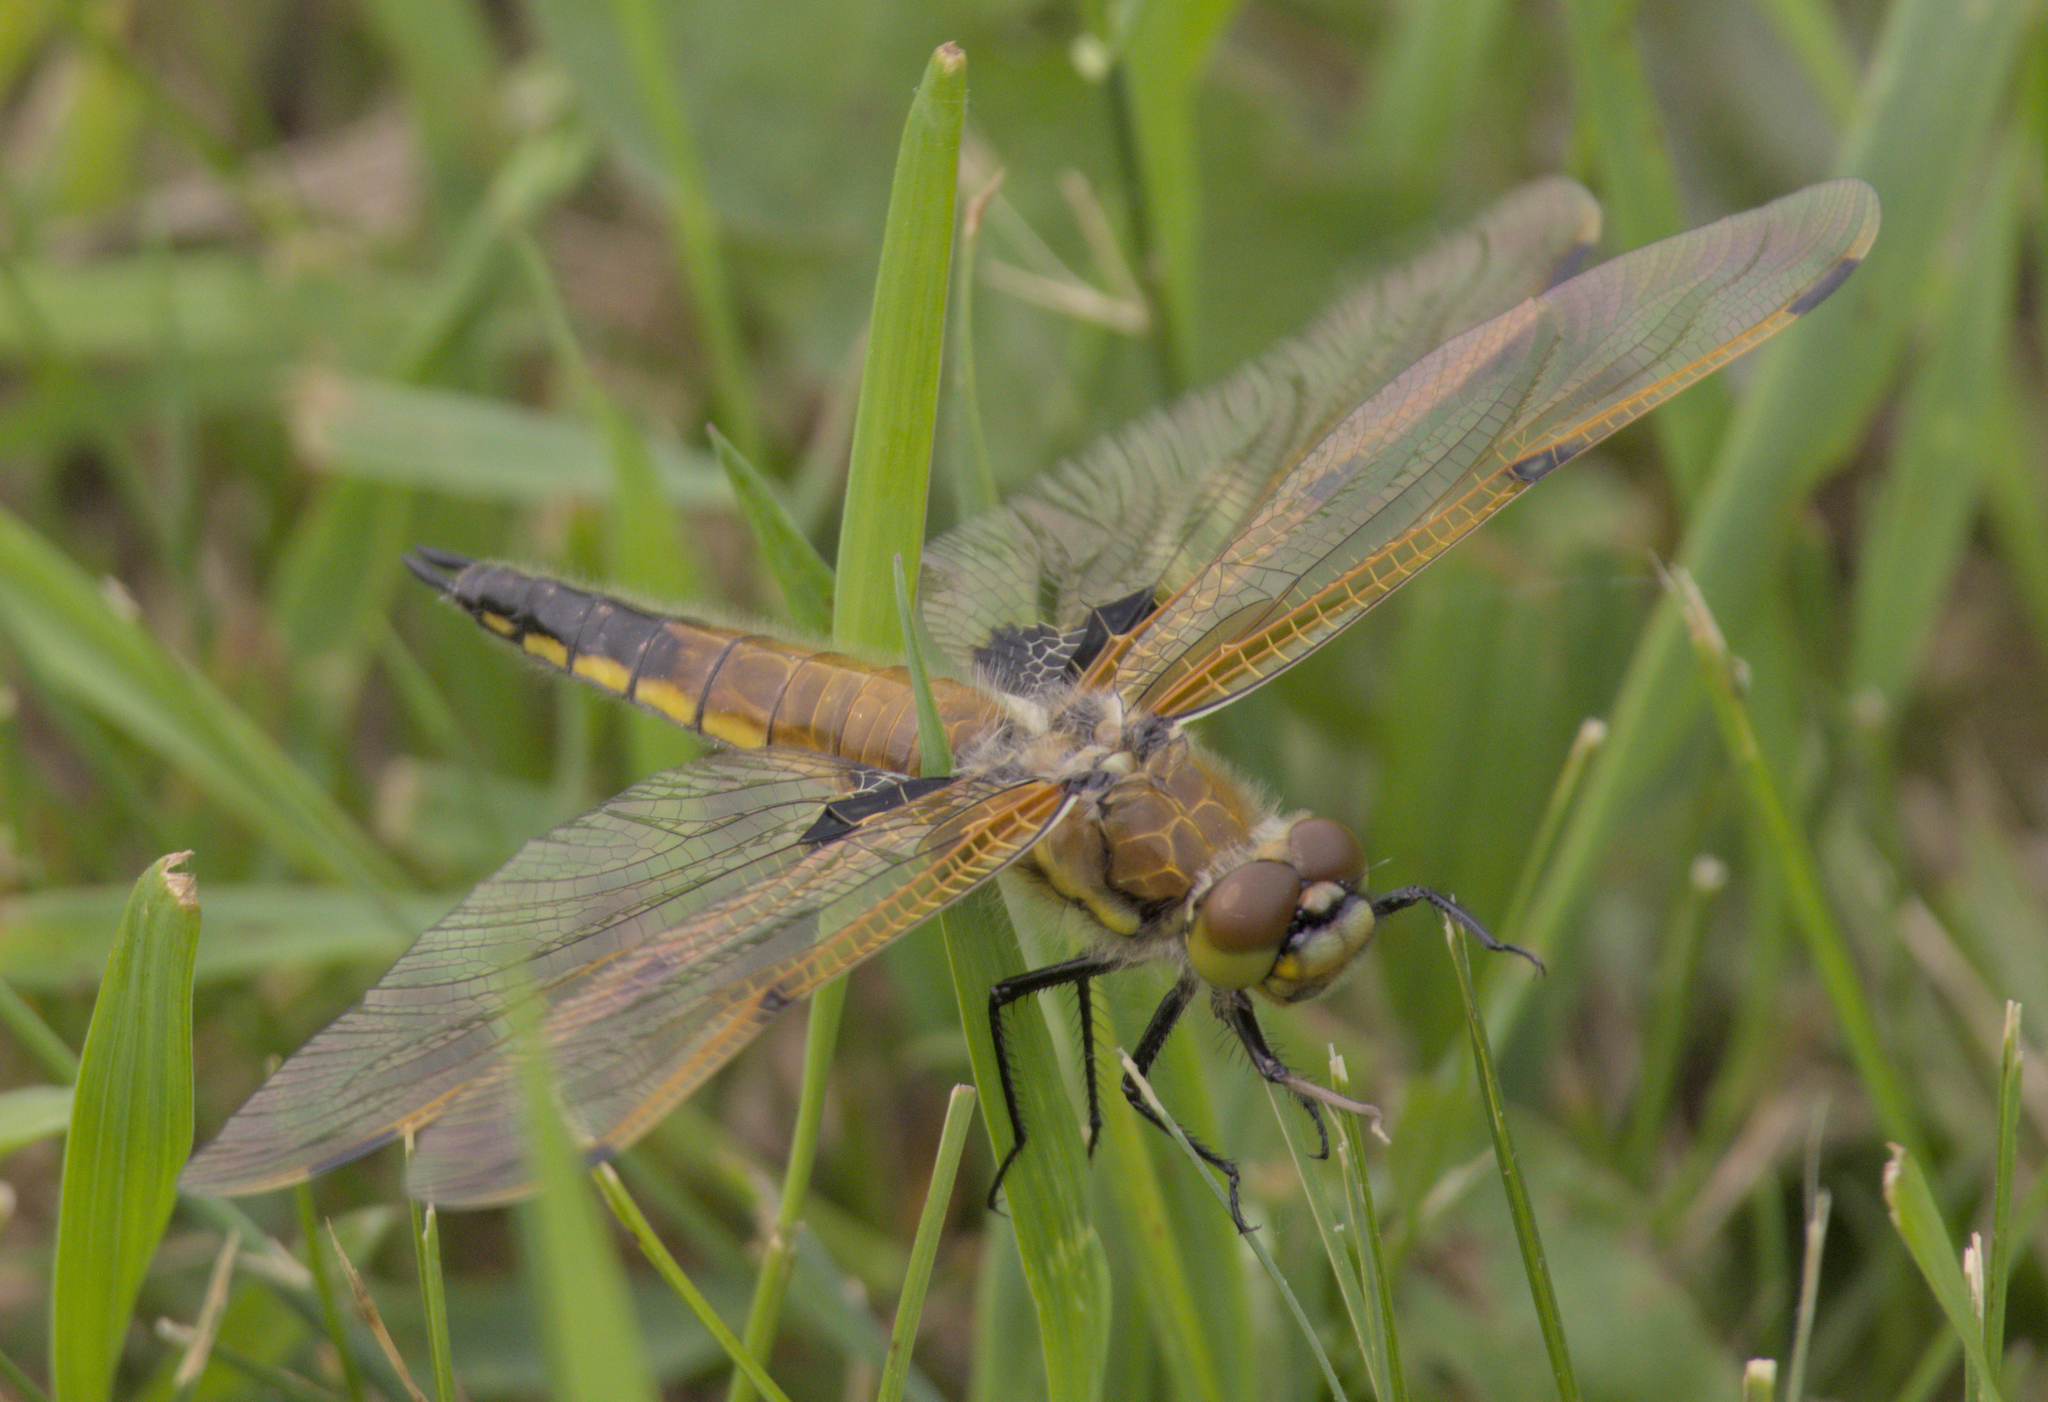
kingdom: Animalia
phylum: Arthropoda
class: Insecta
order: Odonata
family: Libellulidae
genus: Libellula
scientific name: Libellula quadrimaculata
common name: Four-spotted chaser
